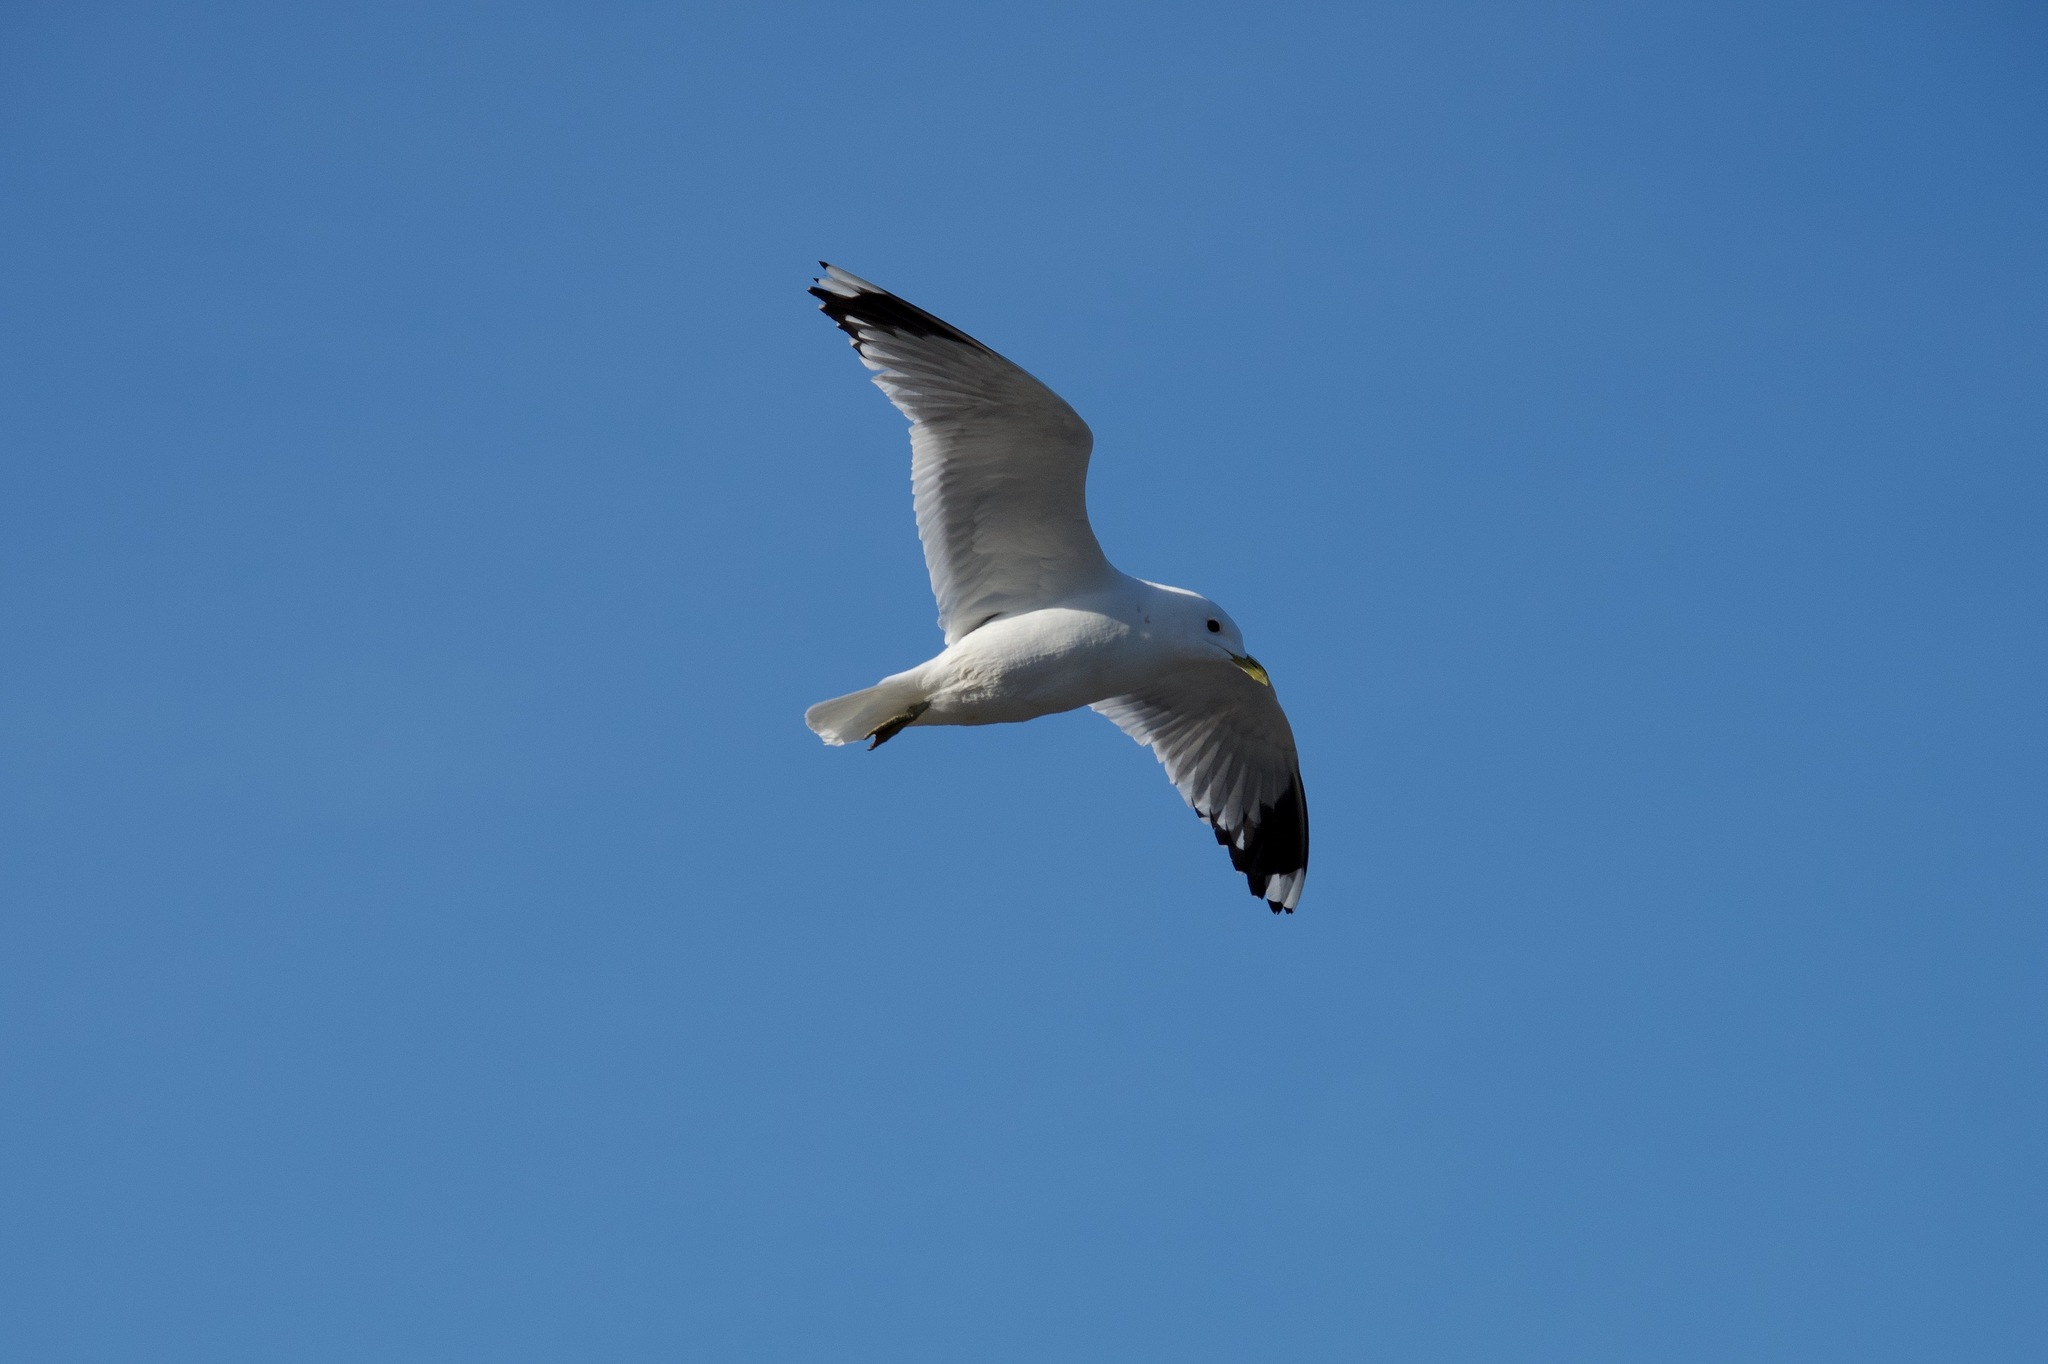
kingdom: Animalia
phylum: Chordata
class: Aves
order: Charadriiformes
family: Laridae
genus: Larus
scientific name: Larus canus
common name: Mew gull
